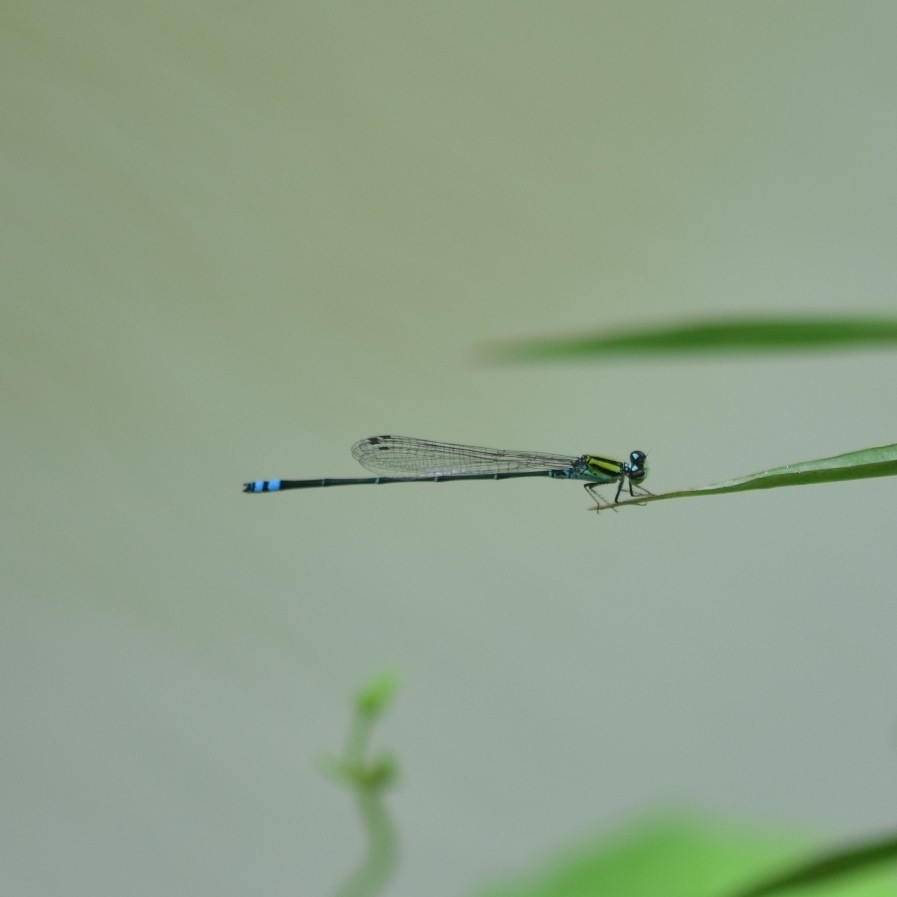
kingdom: Animalia
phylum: Arthropoda
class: Insecta
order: Odonata
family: Coenagrionidae
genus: Pseudagrion
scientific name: Pseudagrion indicum
